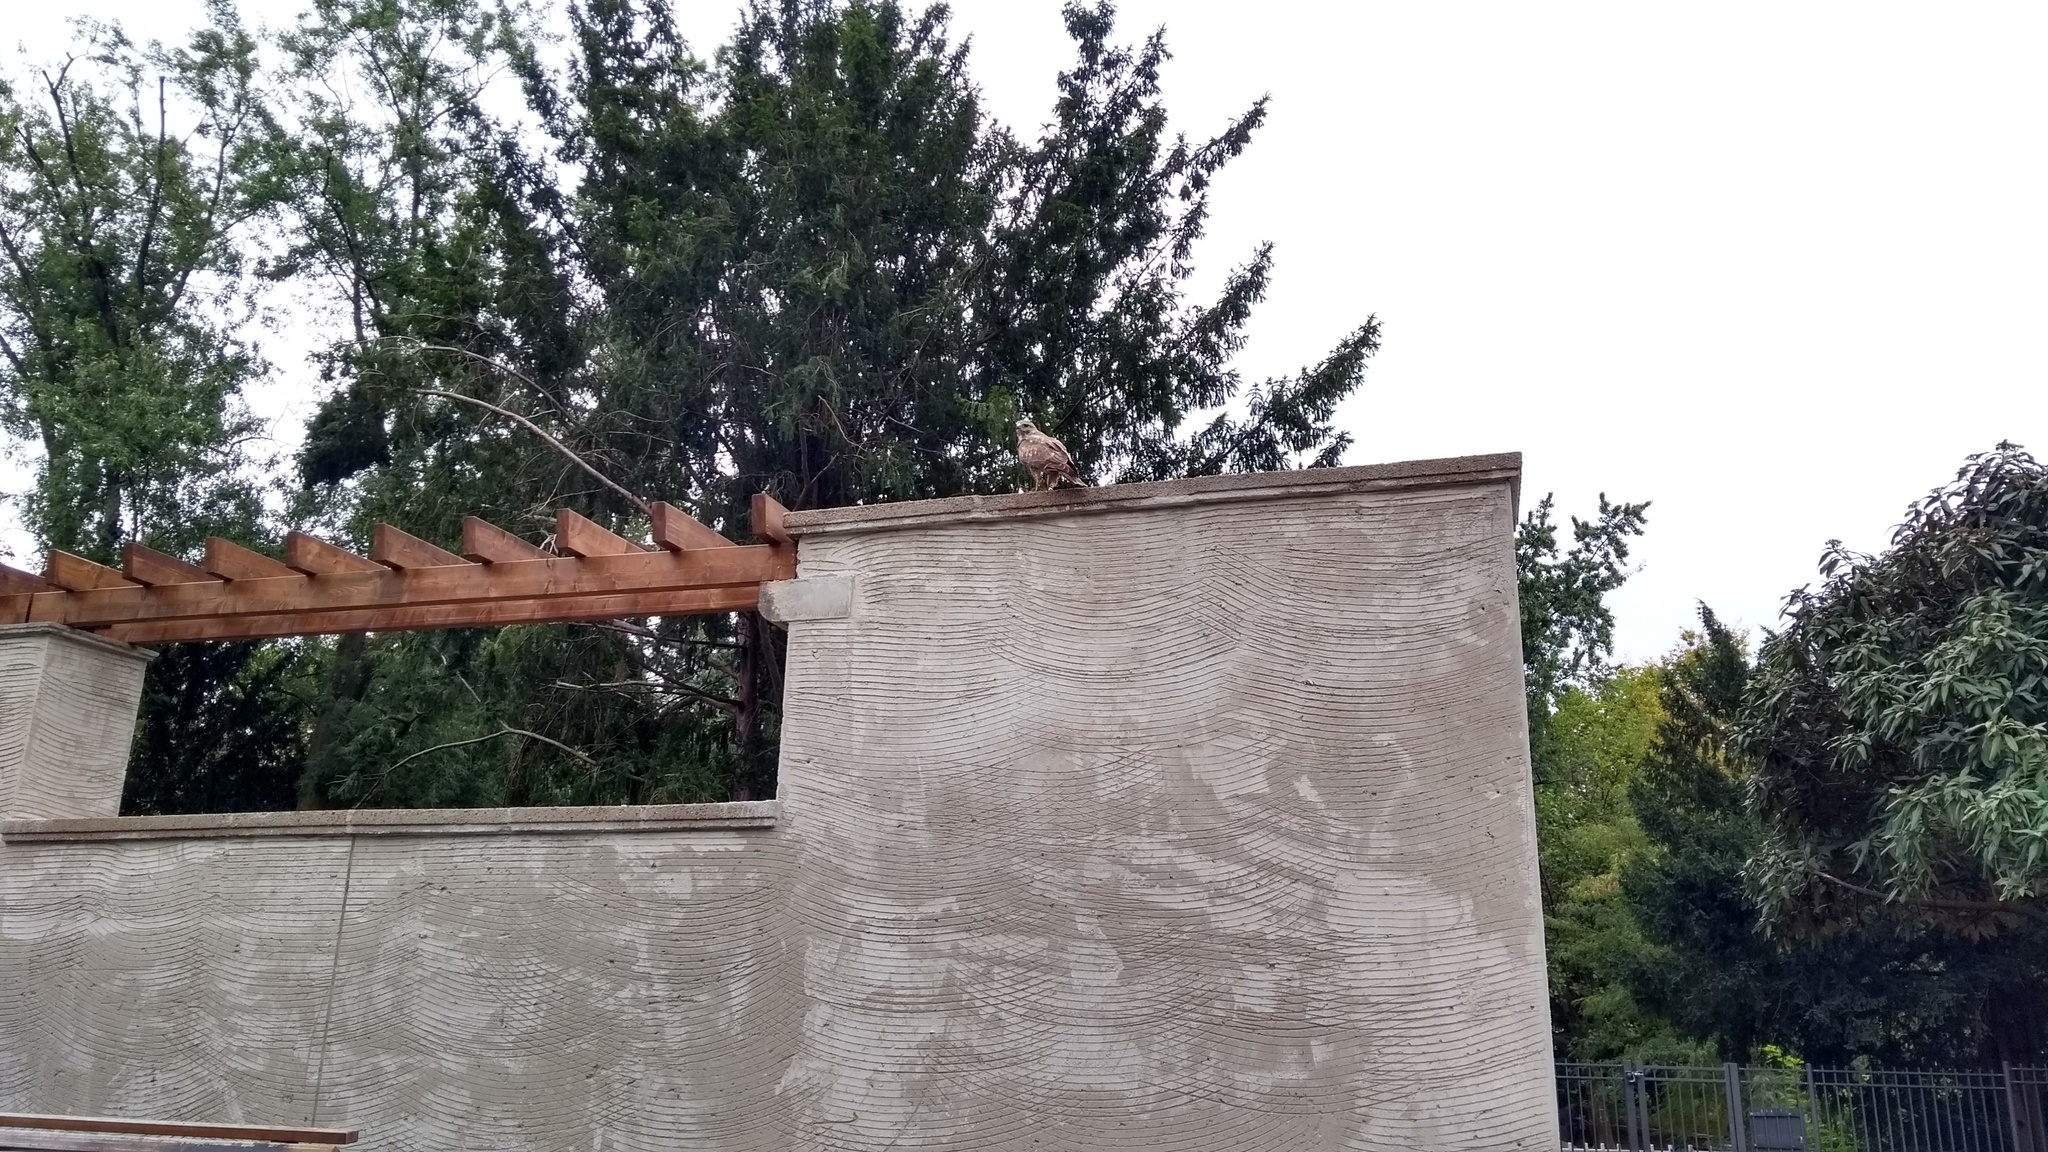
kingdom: Animalia
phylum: Chordata
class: Aves
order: Accipitriformes
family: Accipitridae
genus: Buteo
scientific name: Buteo buteo
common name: Common buzzard
